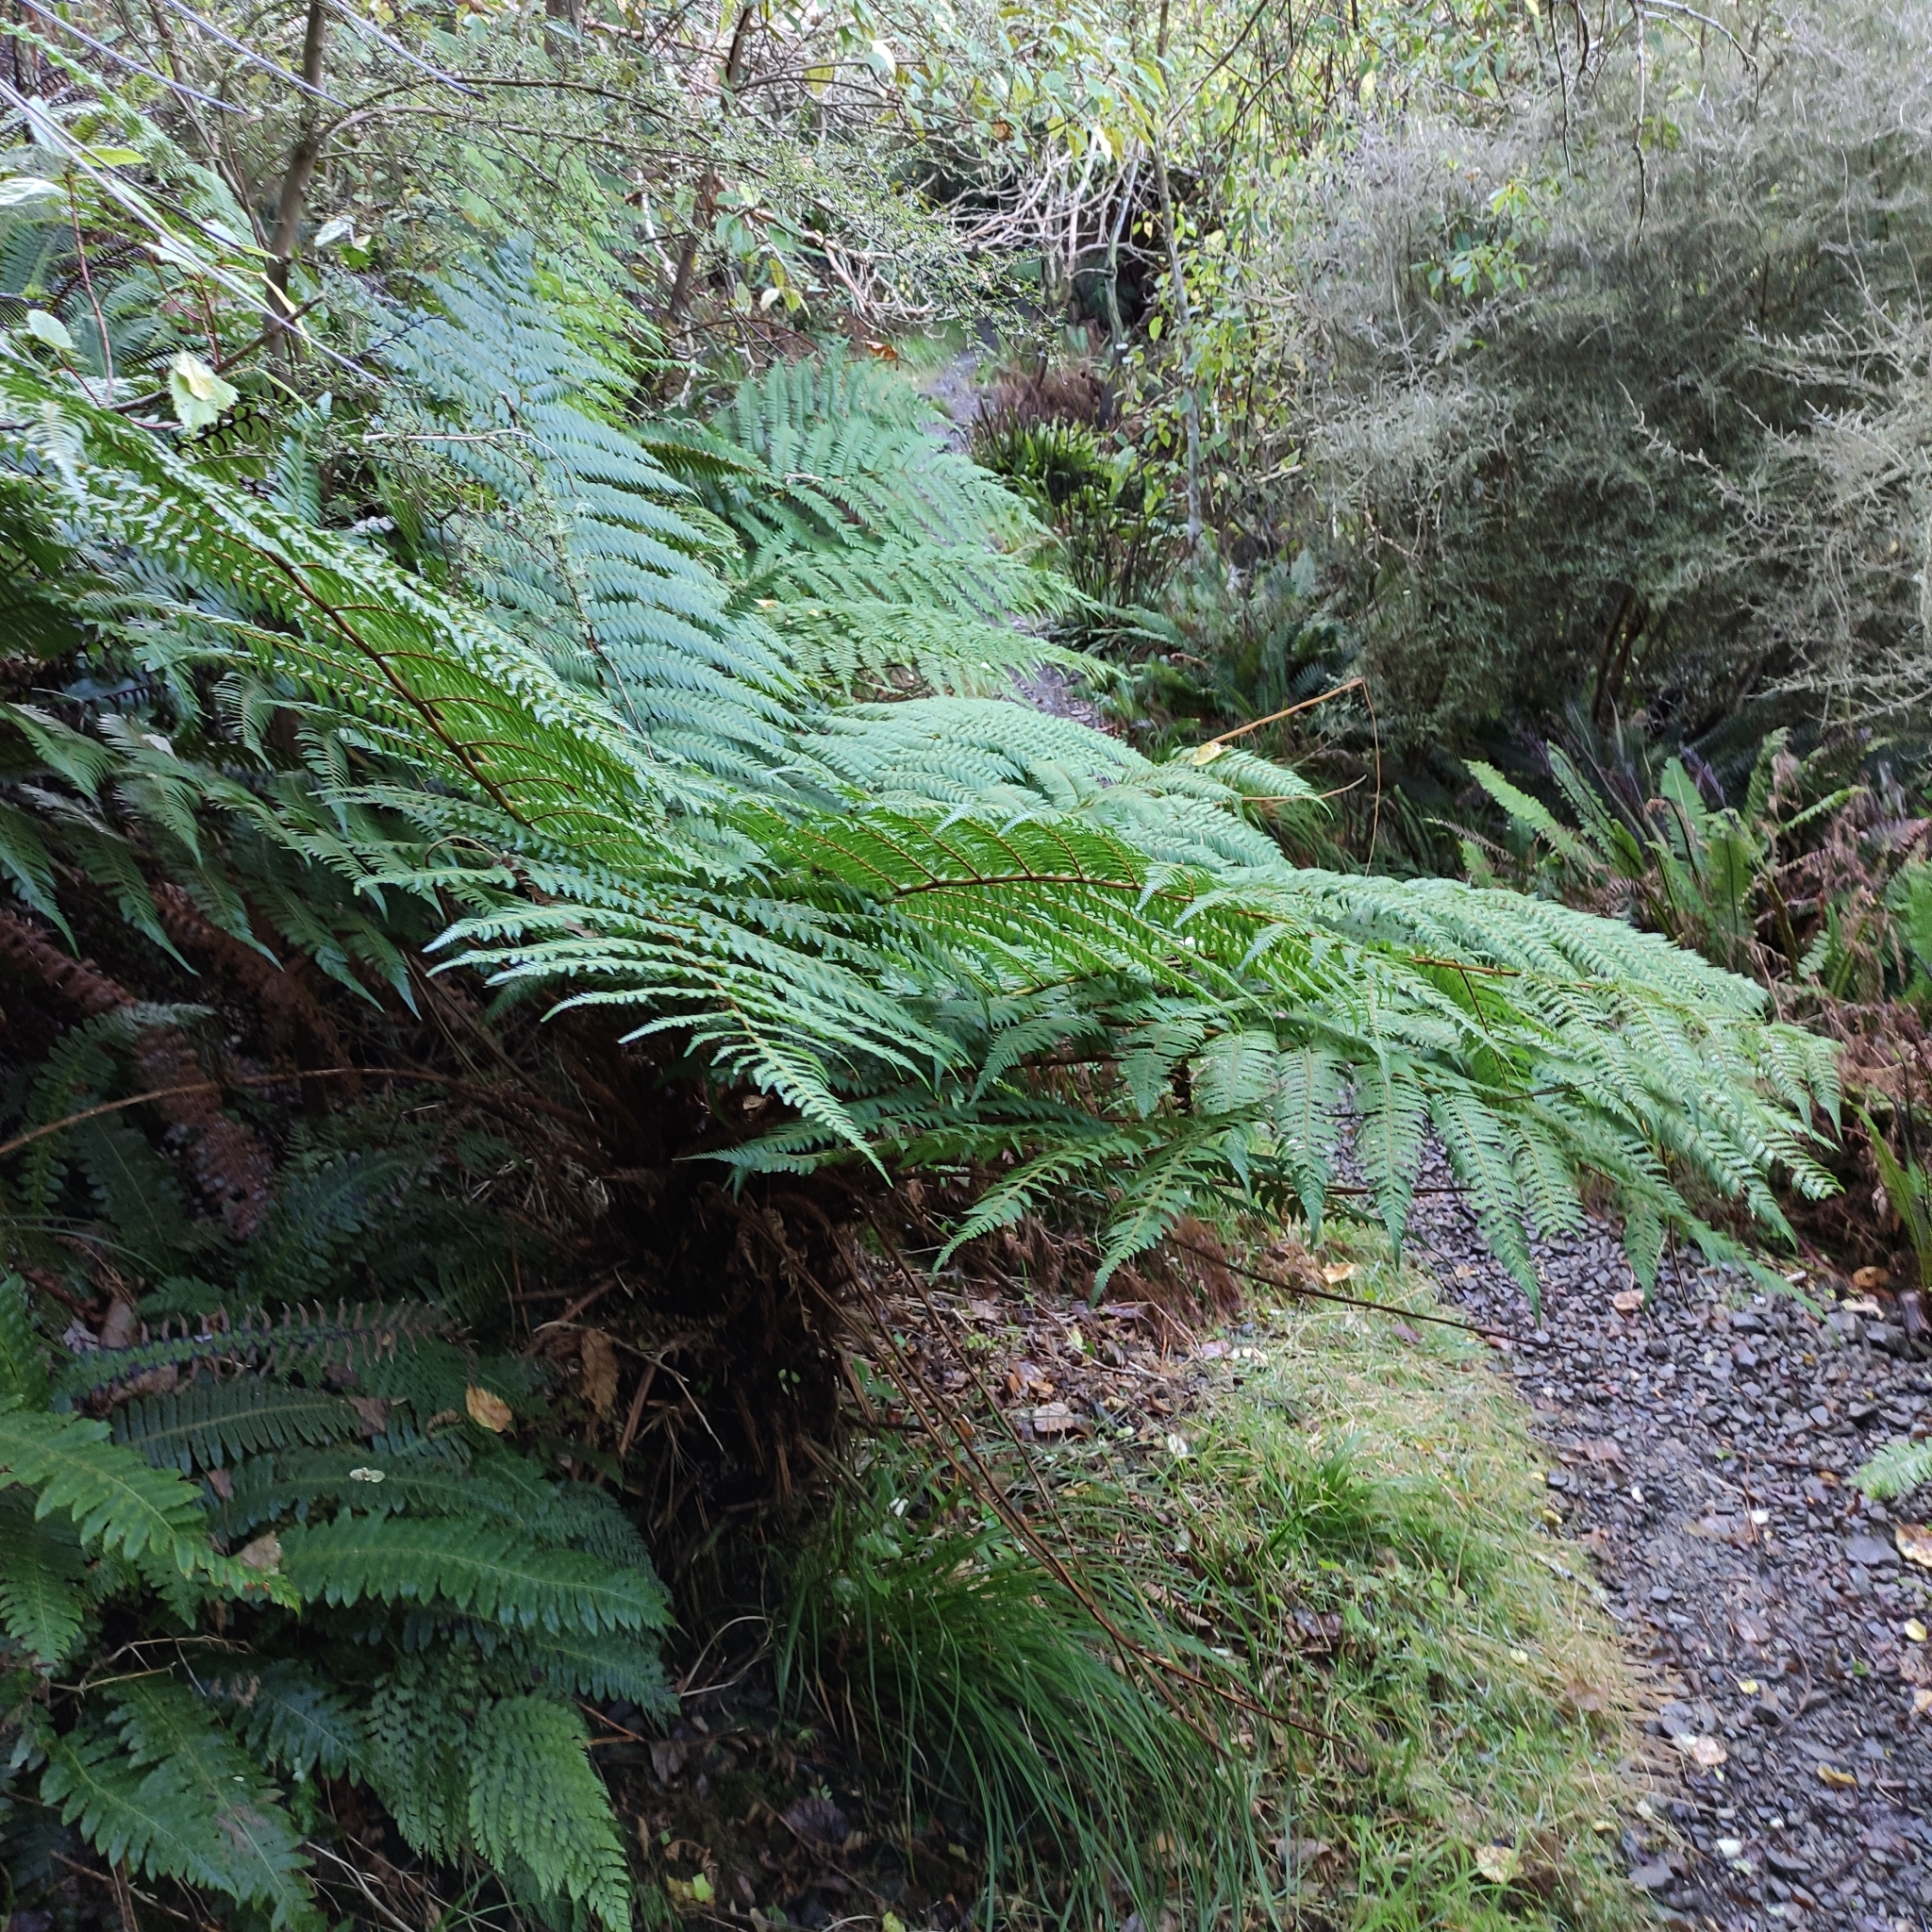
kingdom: Plantae
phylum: Tracheophyta
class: Polypodiopsida
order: Cyatheales
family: Cyatheaceae
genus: Alsophila
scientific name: Alsophila smithii
